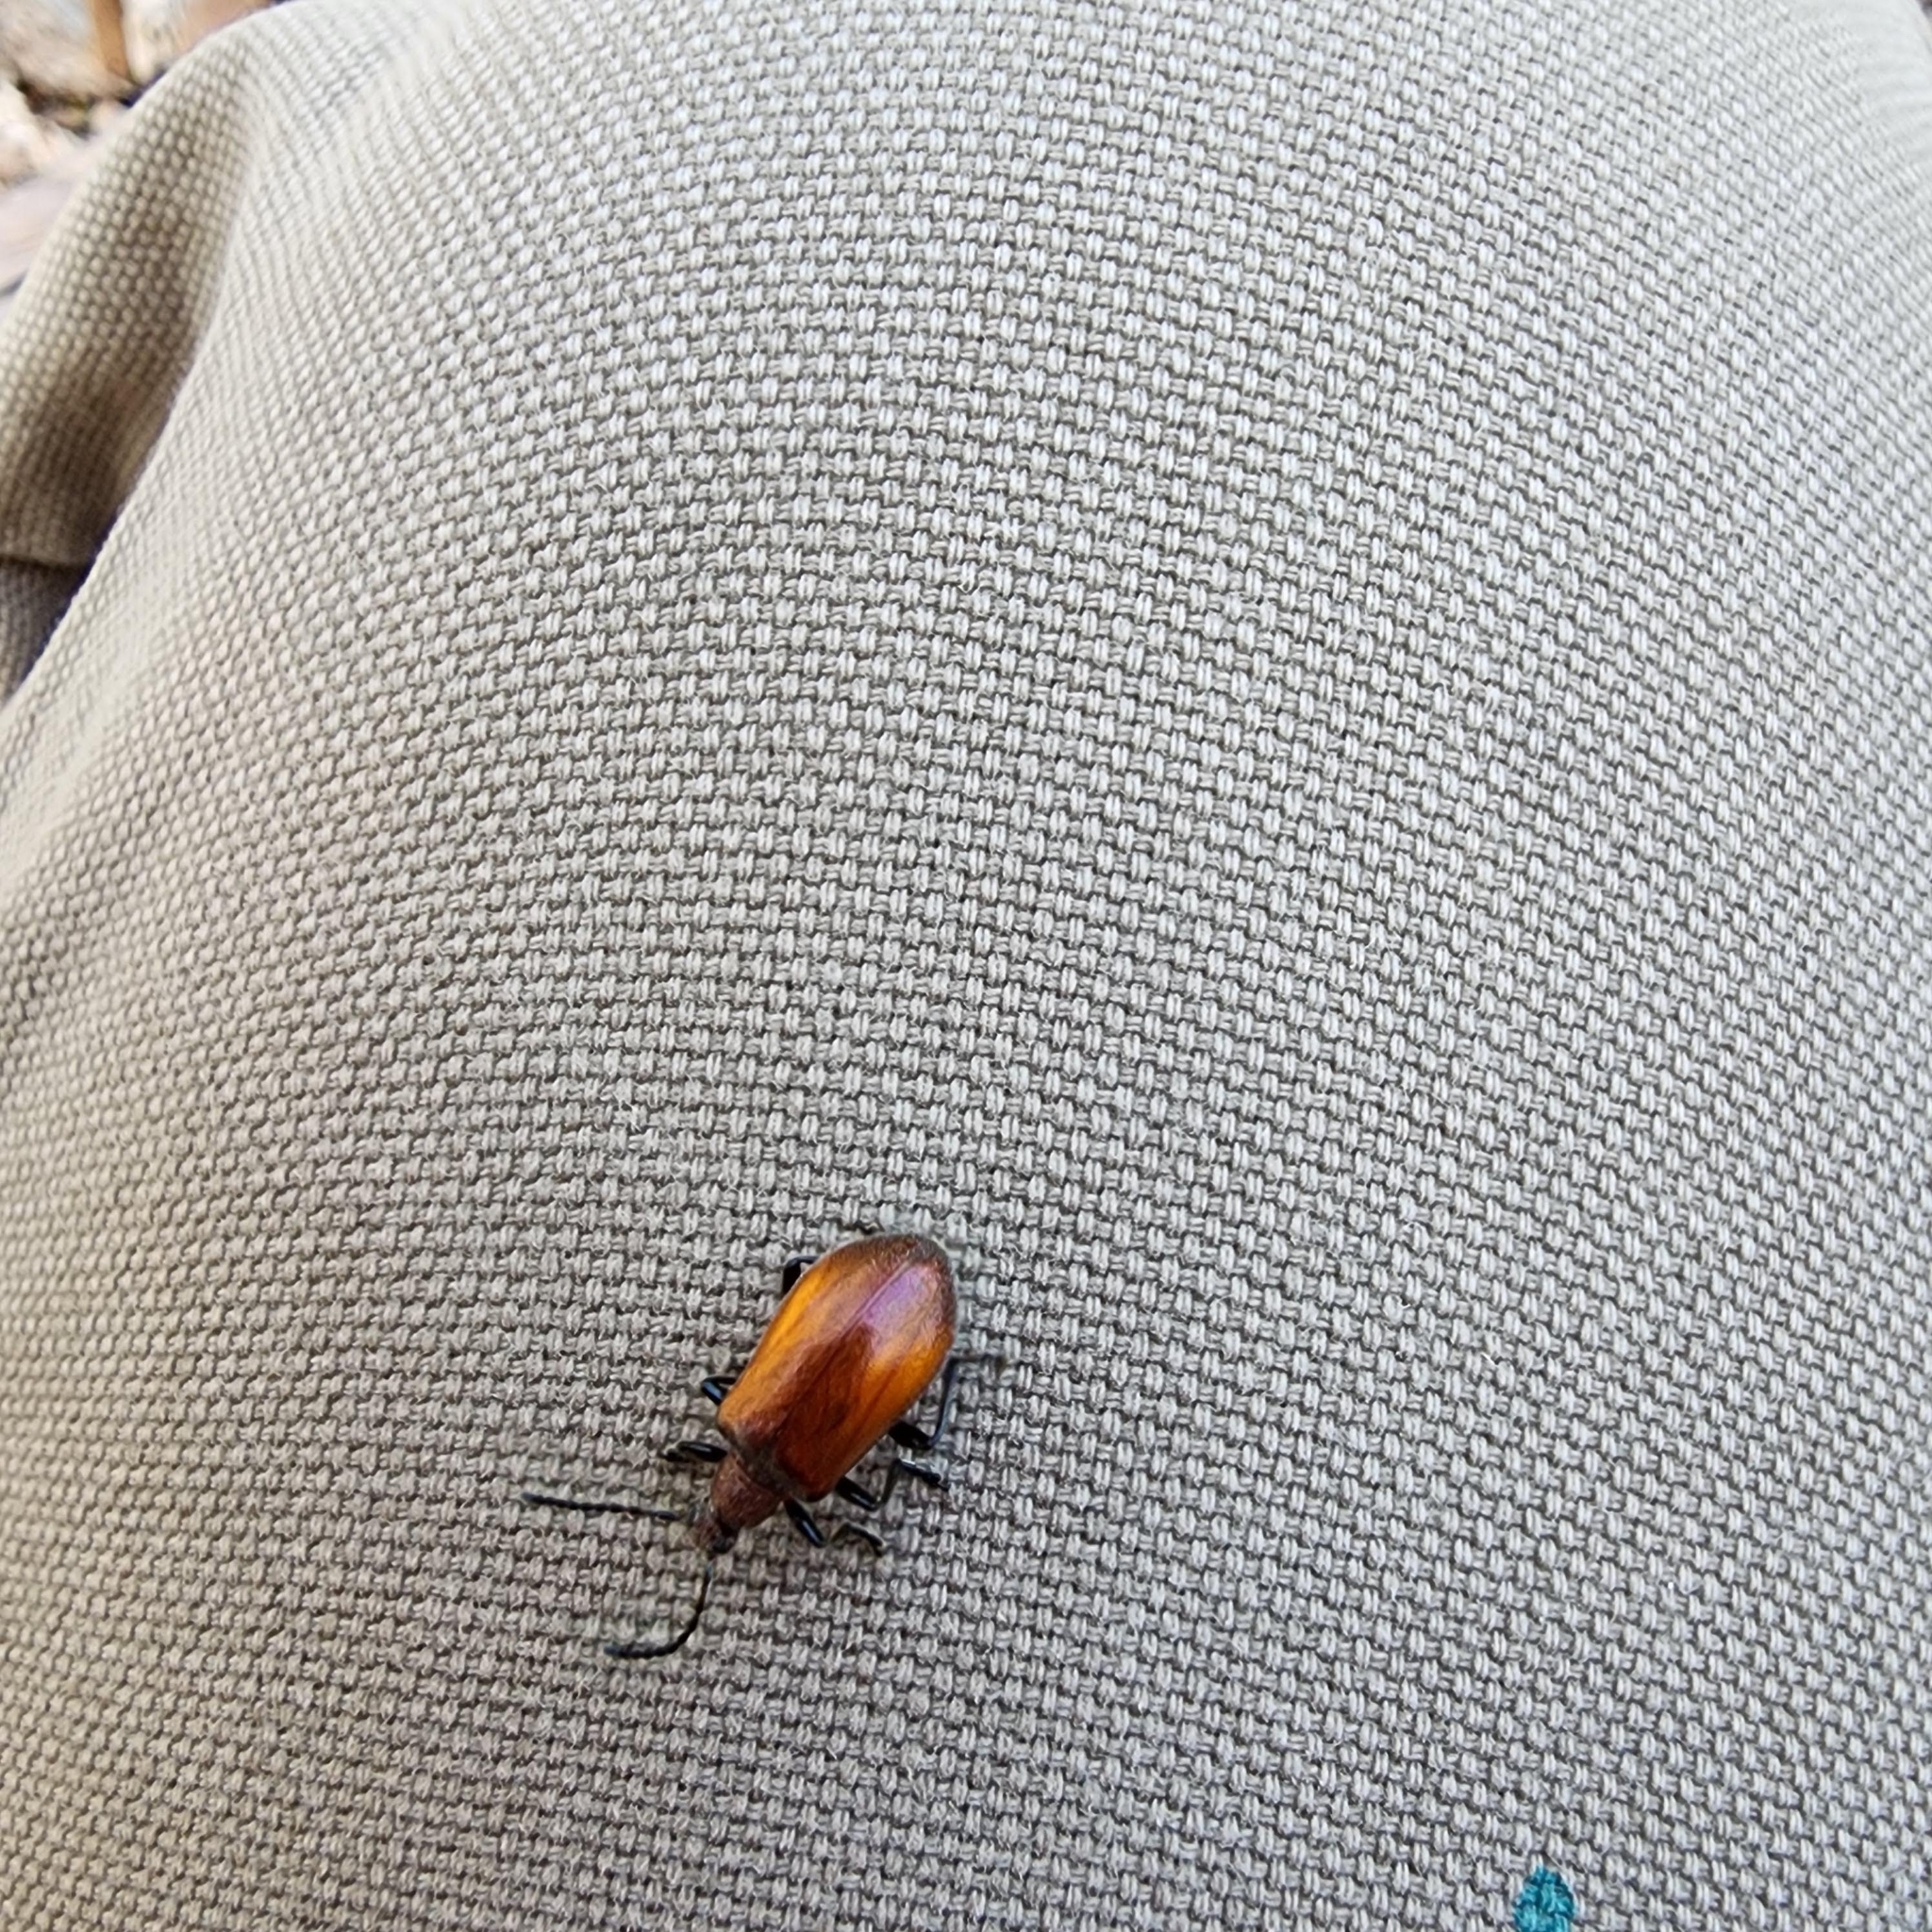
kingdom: Animalia
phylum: Arthropoda
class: Insecta
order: Coleoptera
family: Tenebrionidae
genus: Ecnolagria
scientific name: Ecnolagria
